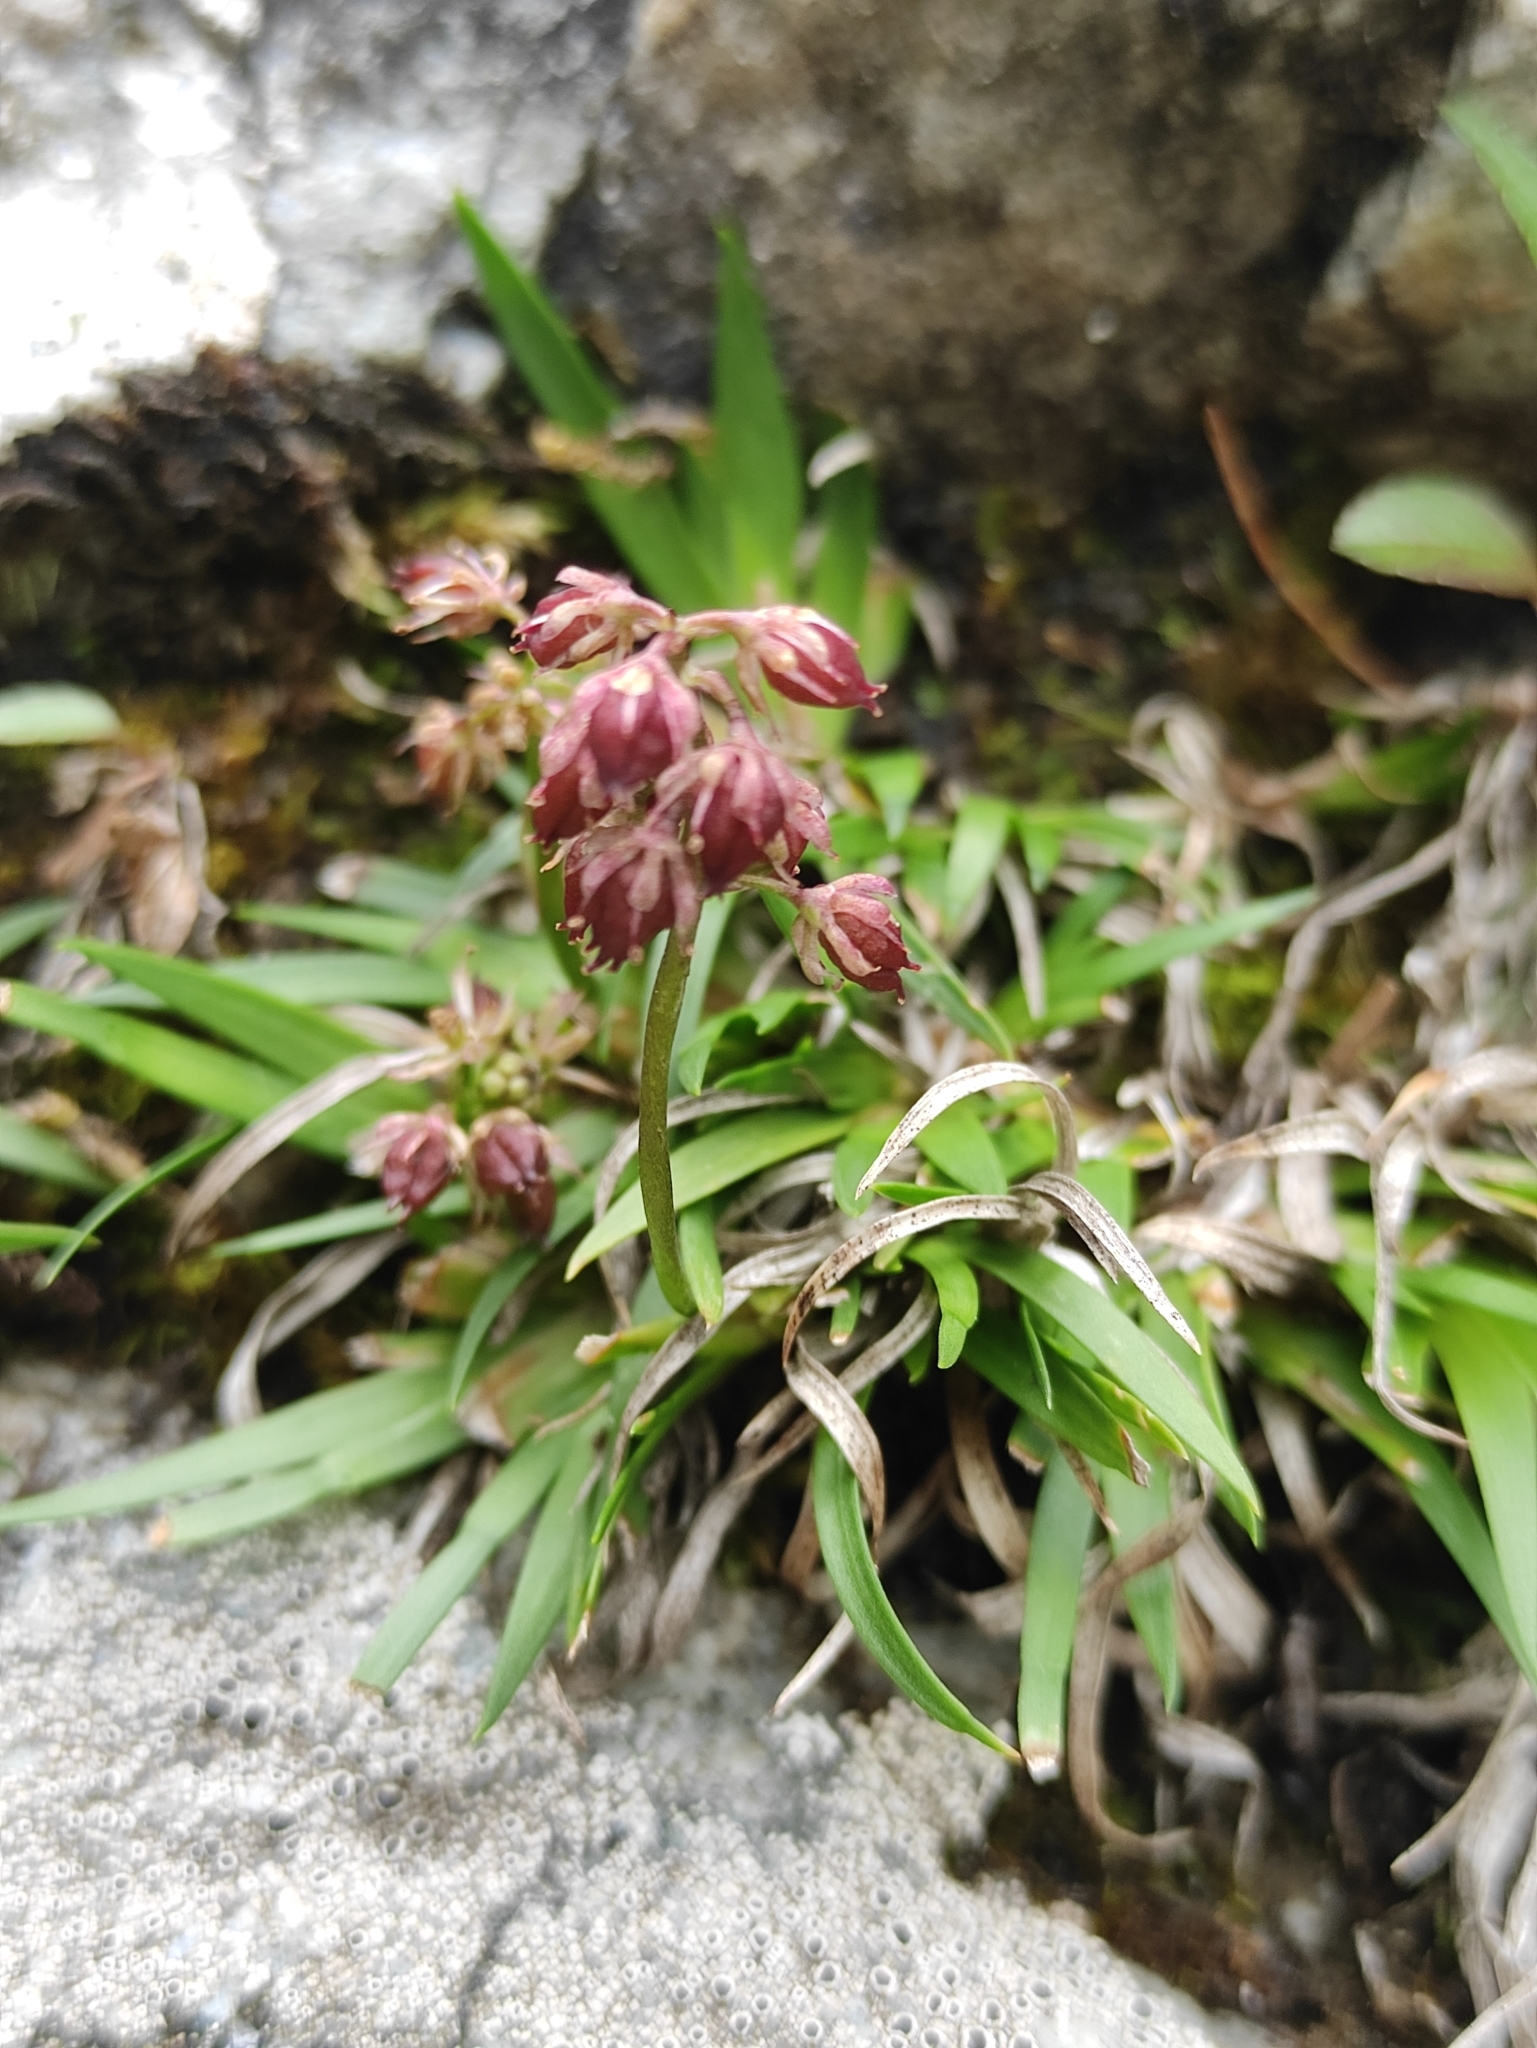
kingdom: Plantae
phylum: Tracheophyta
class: Liliopsida
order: Alismatales
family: Tofieldiaceae
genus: Tofieldia
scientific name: Tofieldia coccinea
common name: Northern false asphodel
